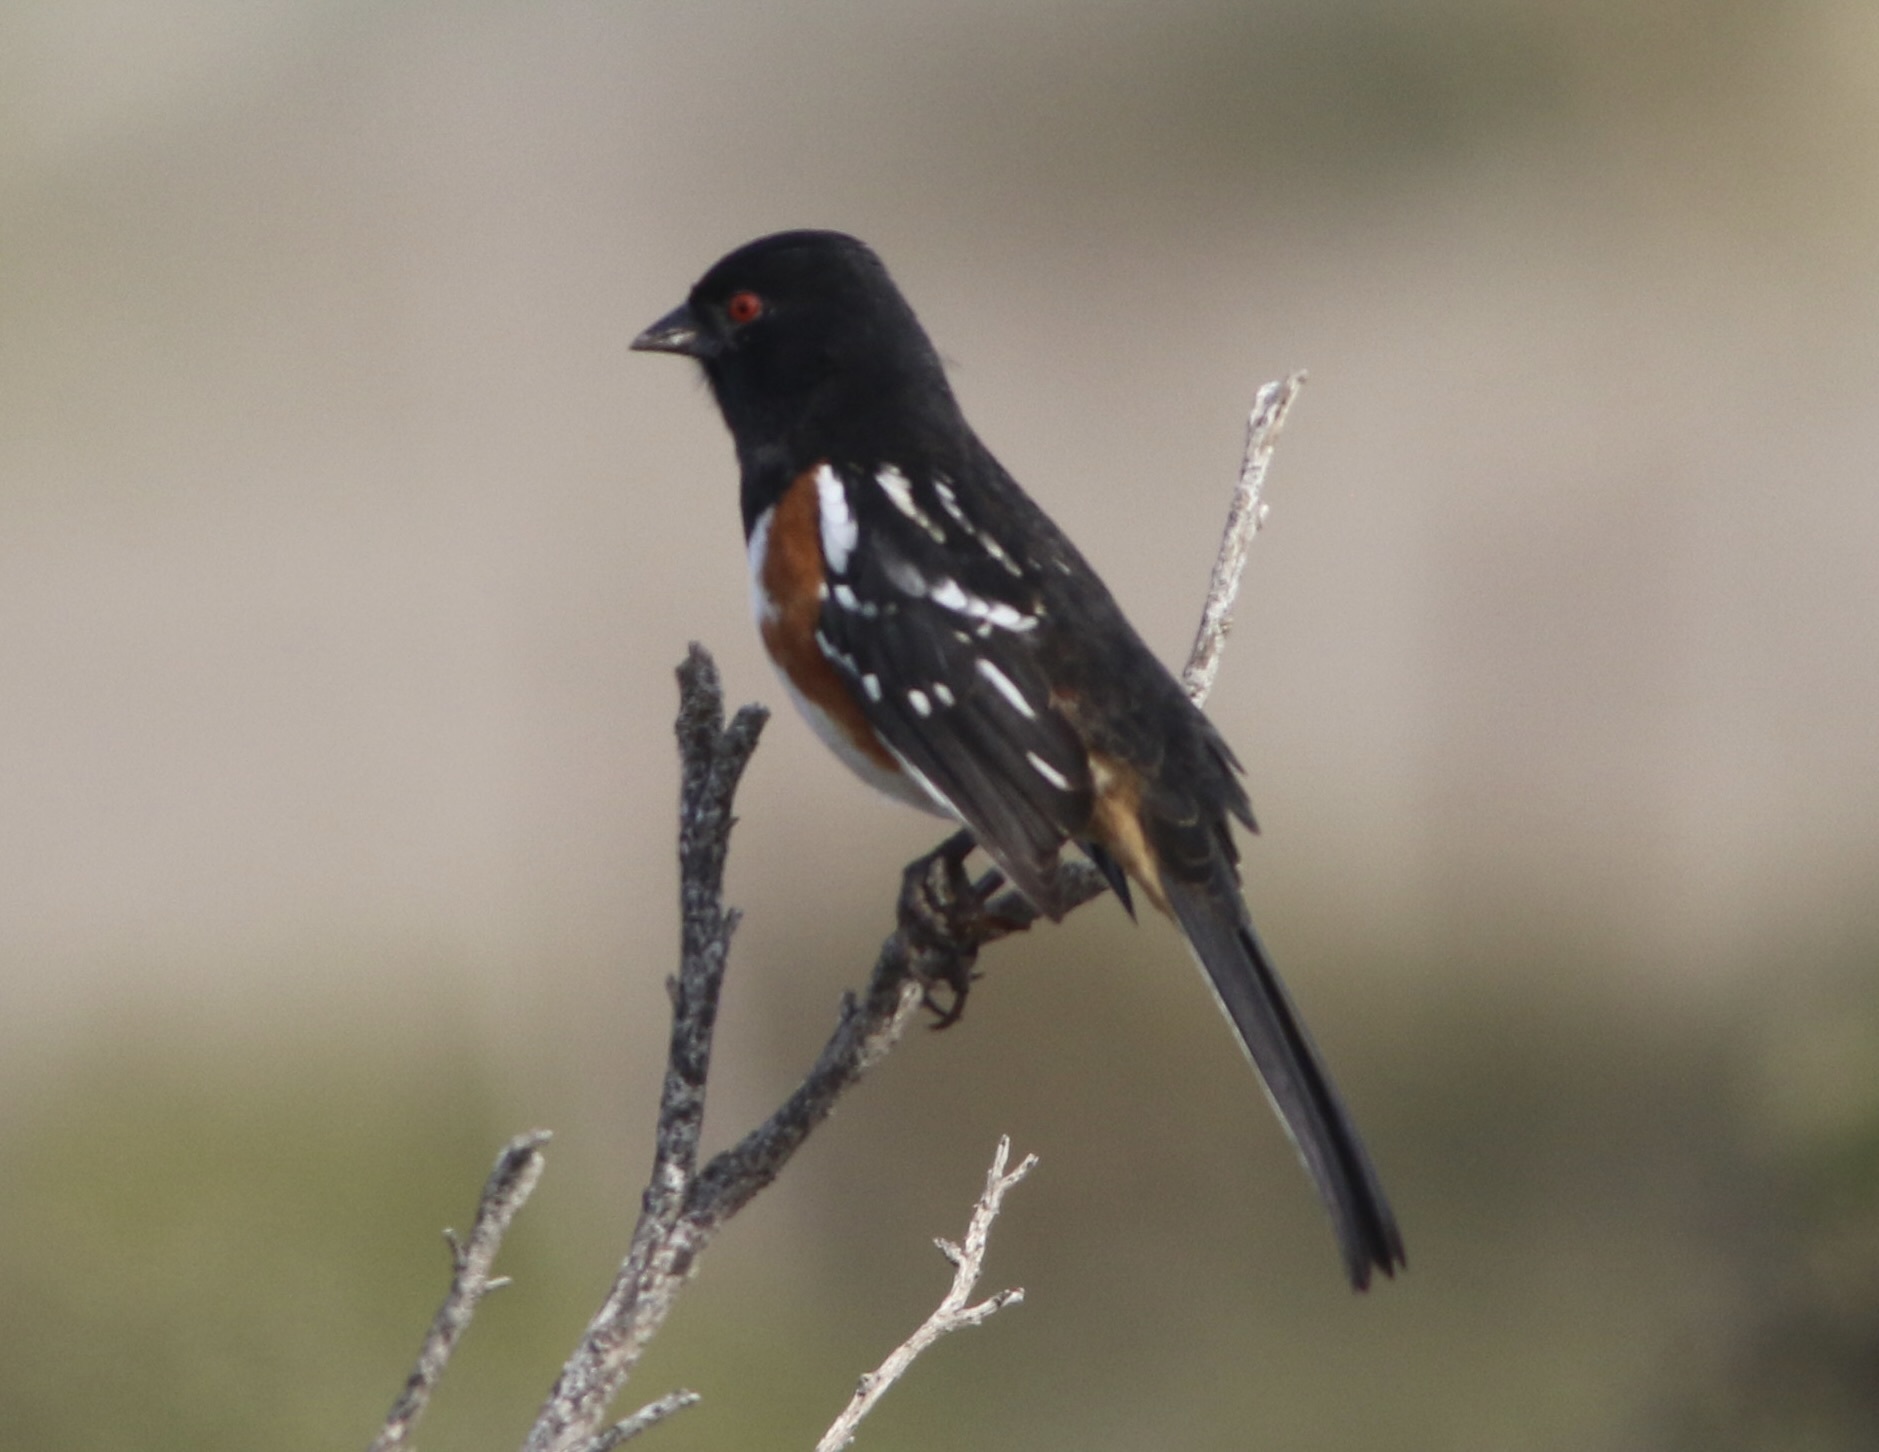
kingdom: Animalia
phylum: Chordata
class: Aves
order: Passeriformes
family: Passerellidae
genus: Pipilo
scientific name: Pipilo maculatus
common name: Spotted towhee
